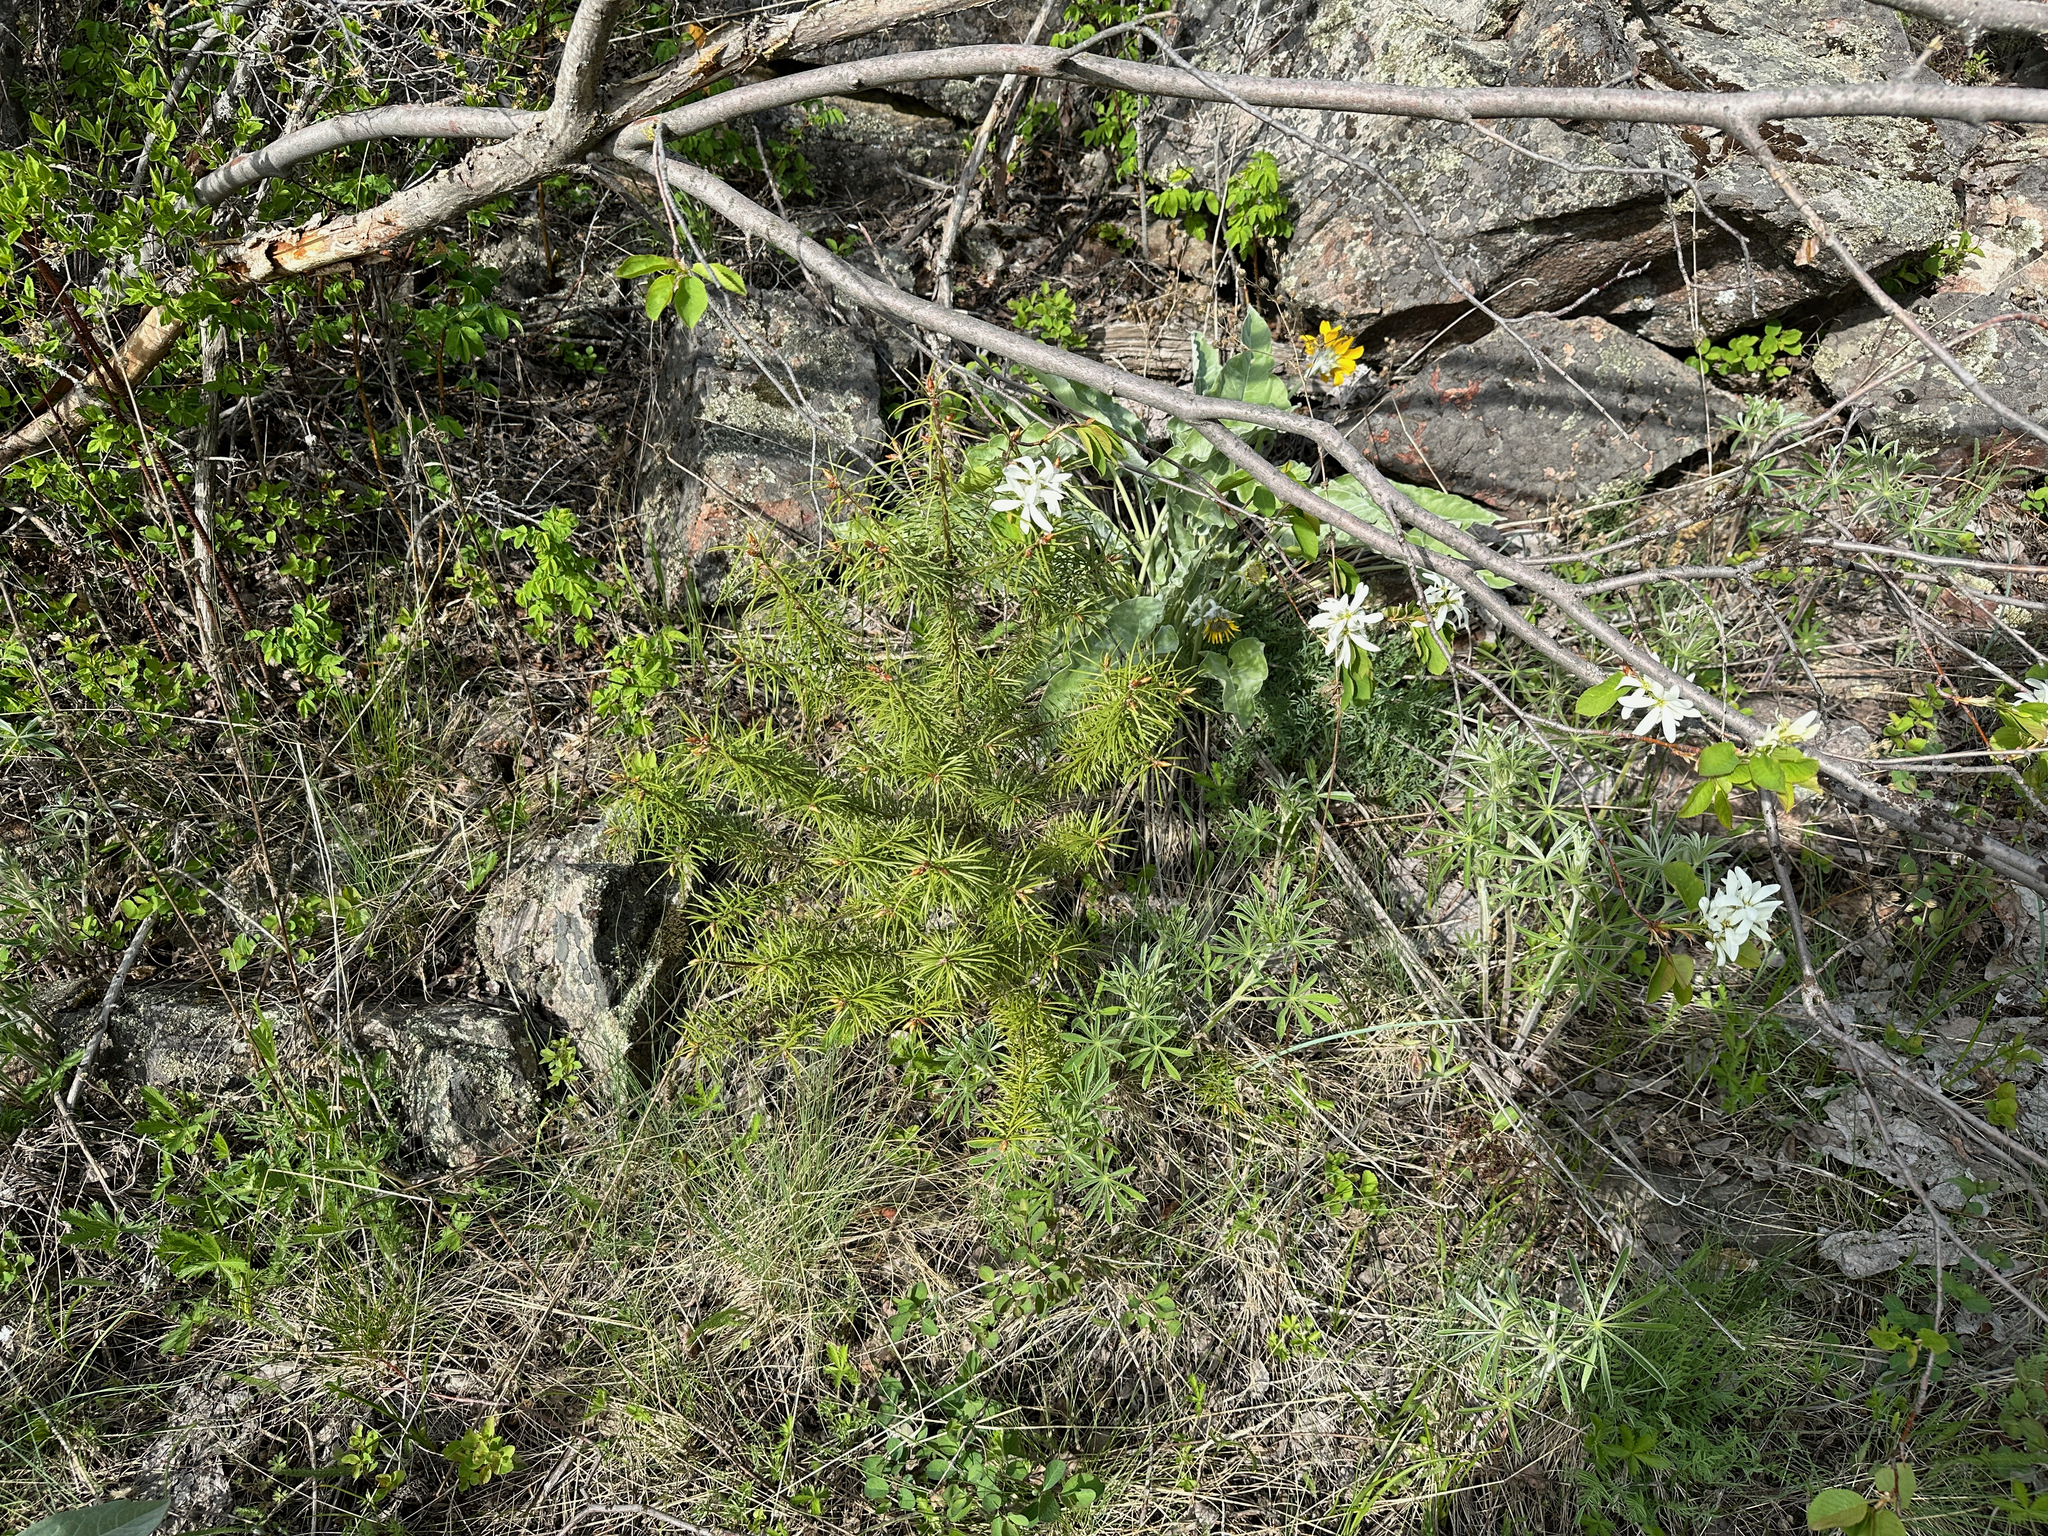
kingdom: Plantae
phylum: Tracheophyta
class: Pinopsida
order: Pinales
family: Pinaceae
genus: Pseudotsuga
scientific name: Pseudotsuga menziesii
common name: Douglas fir
